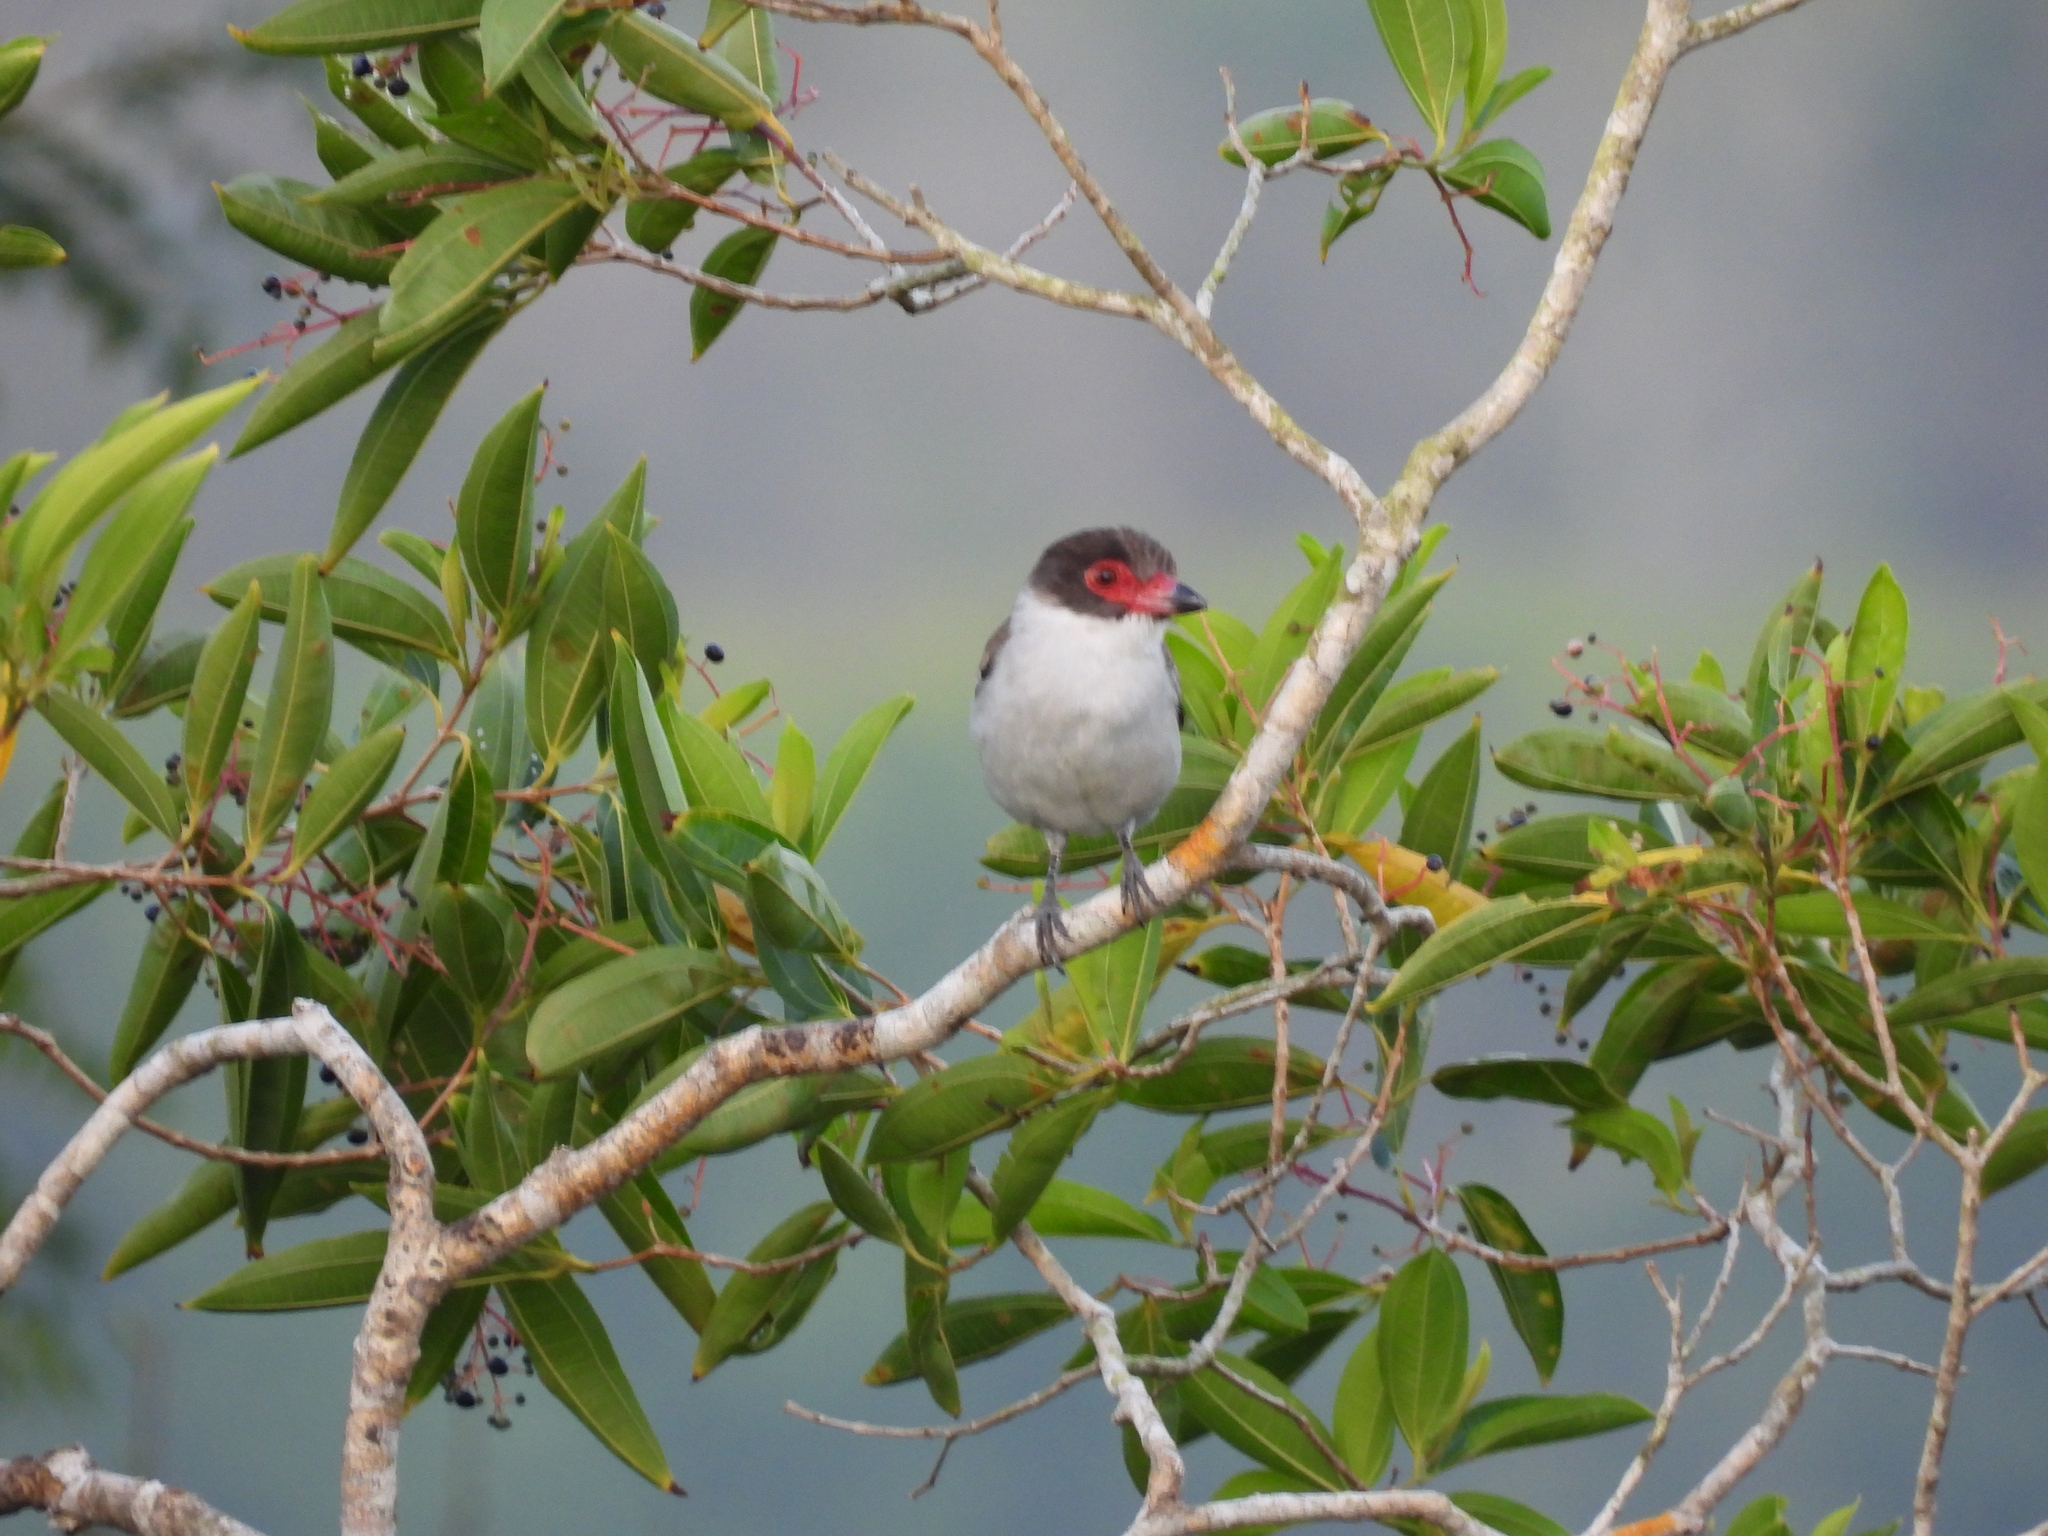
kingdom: Animalia
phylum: Chordata
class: Aves
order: Passeriformes
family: Cotingidae
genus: Tityra
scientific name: Tityra semifasciata
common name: Masked tityra
